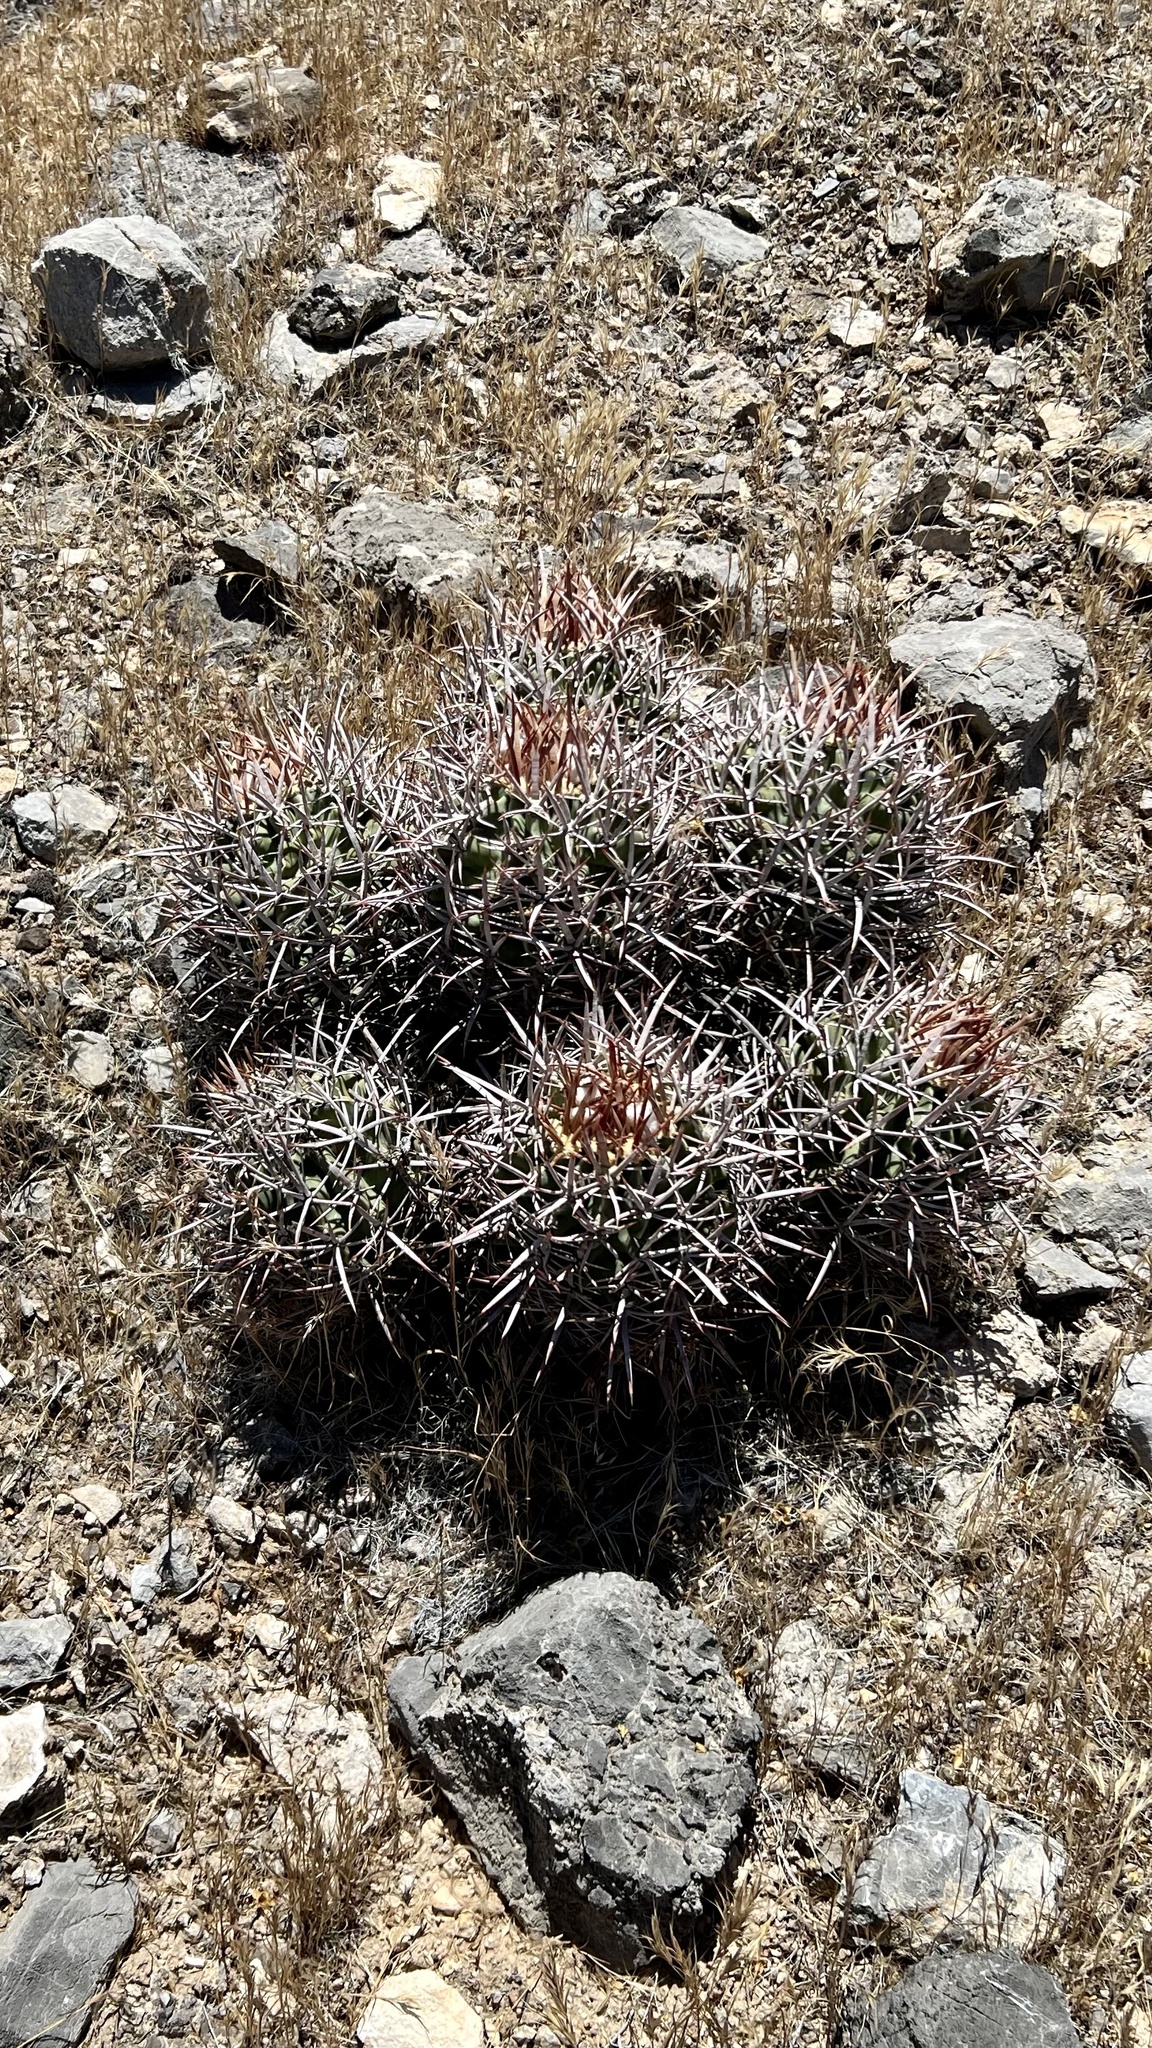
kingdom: Plantae
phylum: Tracheophyta
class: Magnoliopsida
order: Caryophyllales
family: Cactaceae
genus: Echinocactus
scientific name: Echinocactus polycephalus
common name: Cottontop cactus
